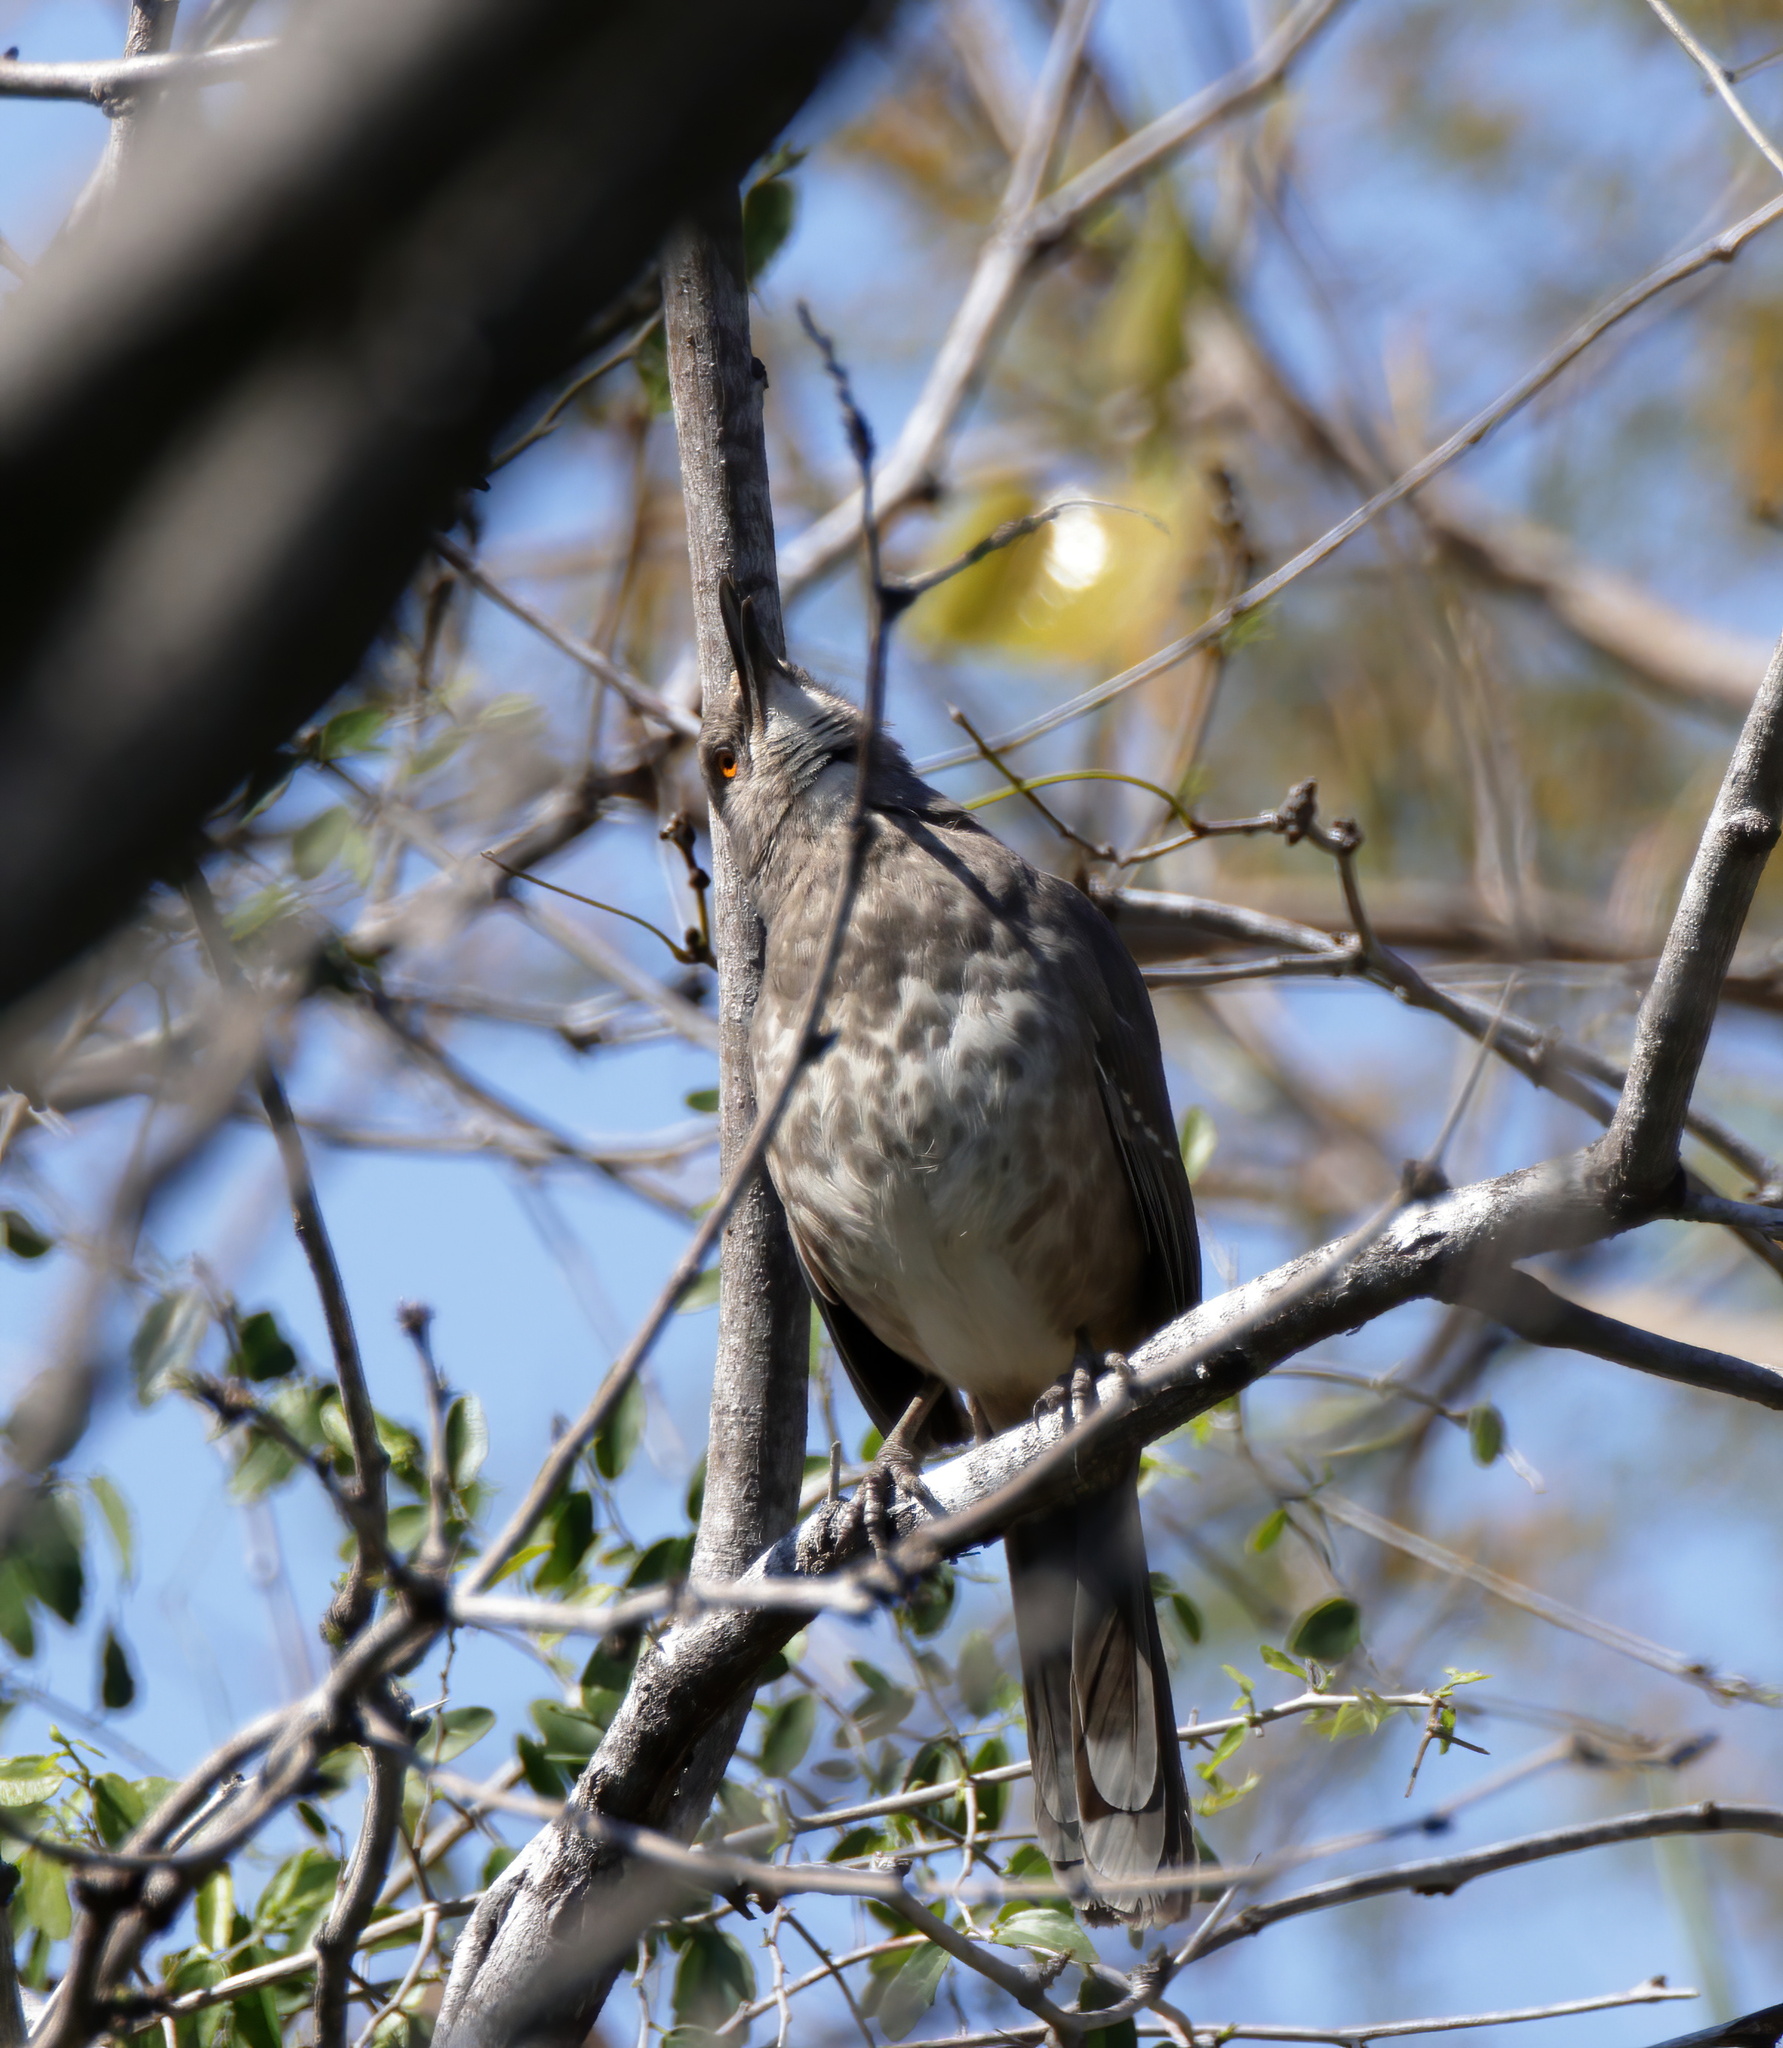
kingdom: Animalia
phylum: Chordata
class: Aves
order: Passeriformes
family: Mimidae
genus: Toxostoma
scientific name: Toxostoma curvirostre
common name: Curve-billed thrasher
